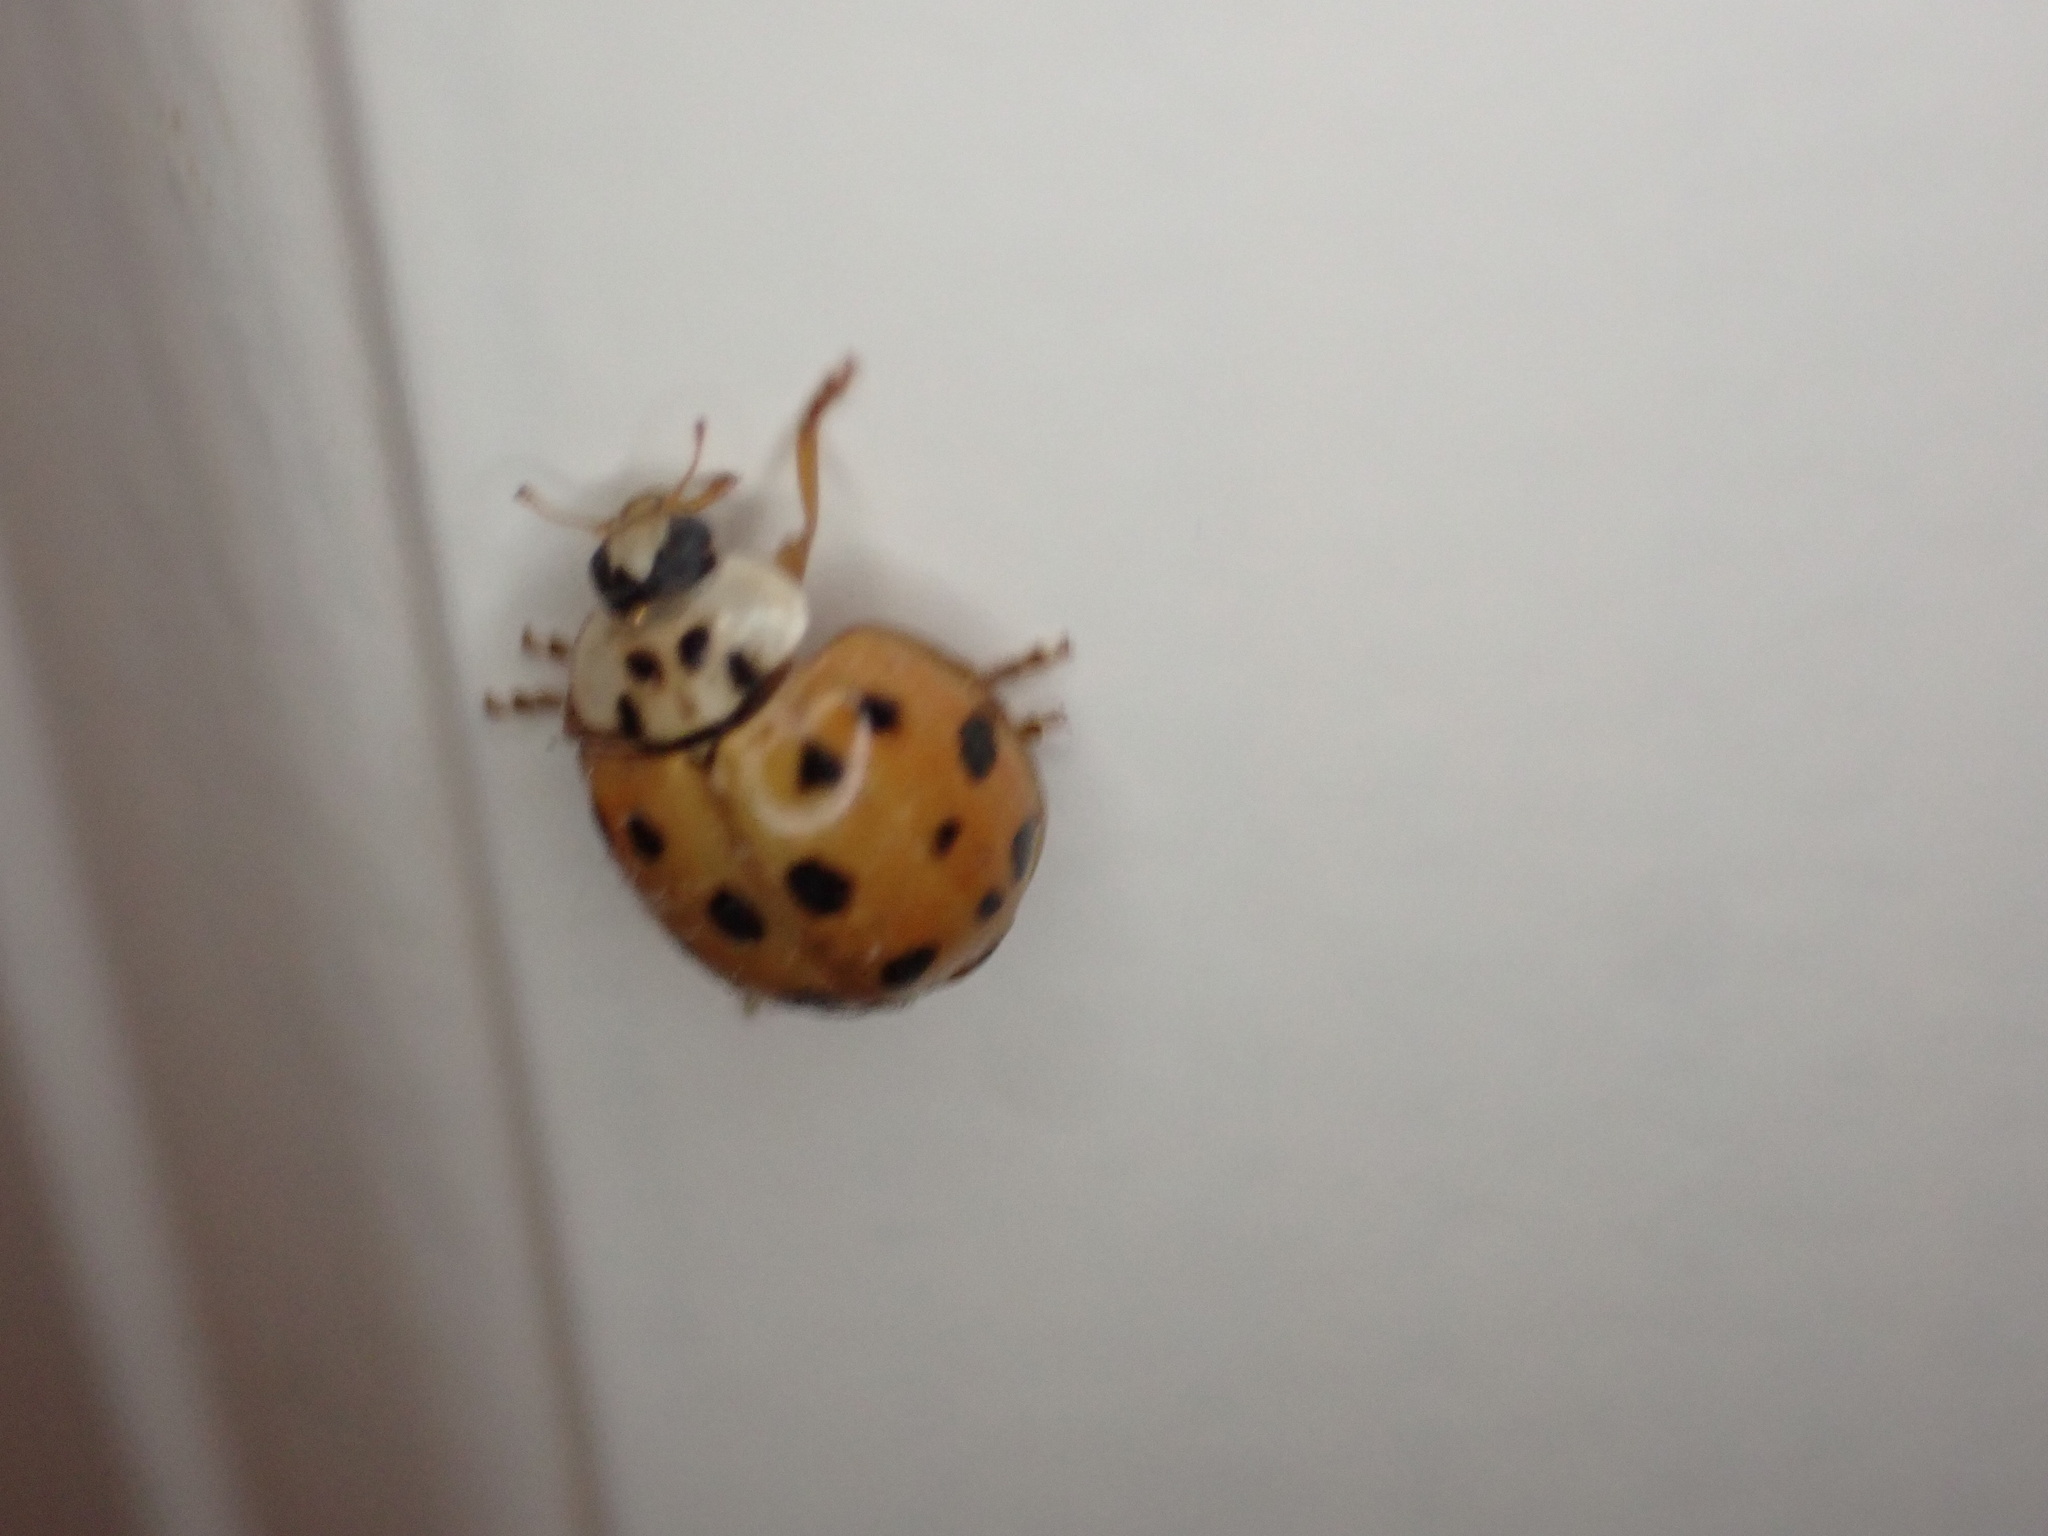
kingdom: Animalia
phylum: Arthropoda
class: Insecta
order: Coleoptera
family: Coccinellidae
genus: Harmonia
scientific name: Harmonia axyridis
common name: Harlequin ladybird
